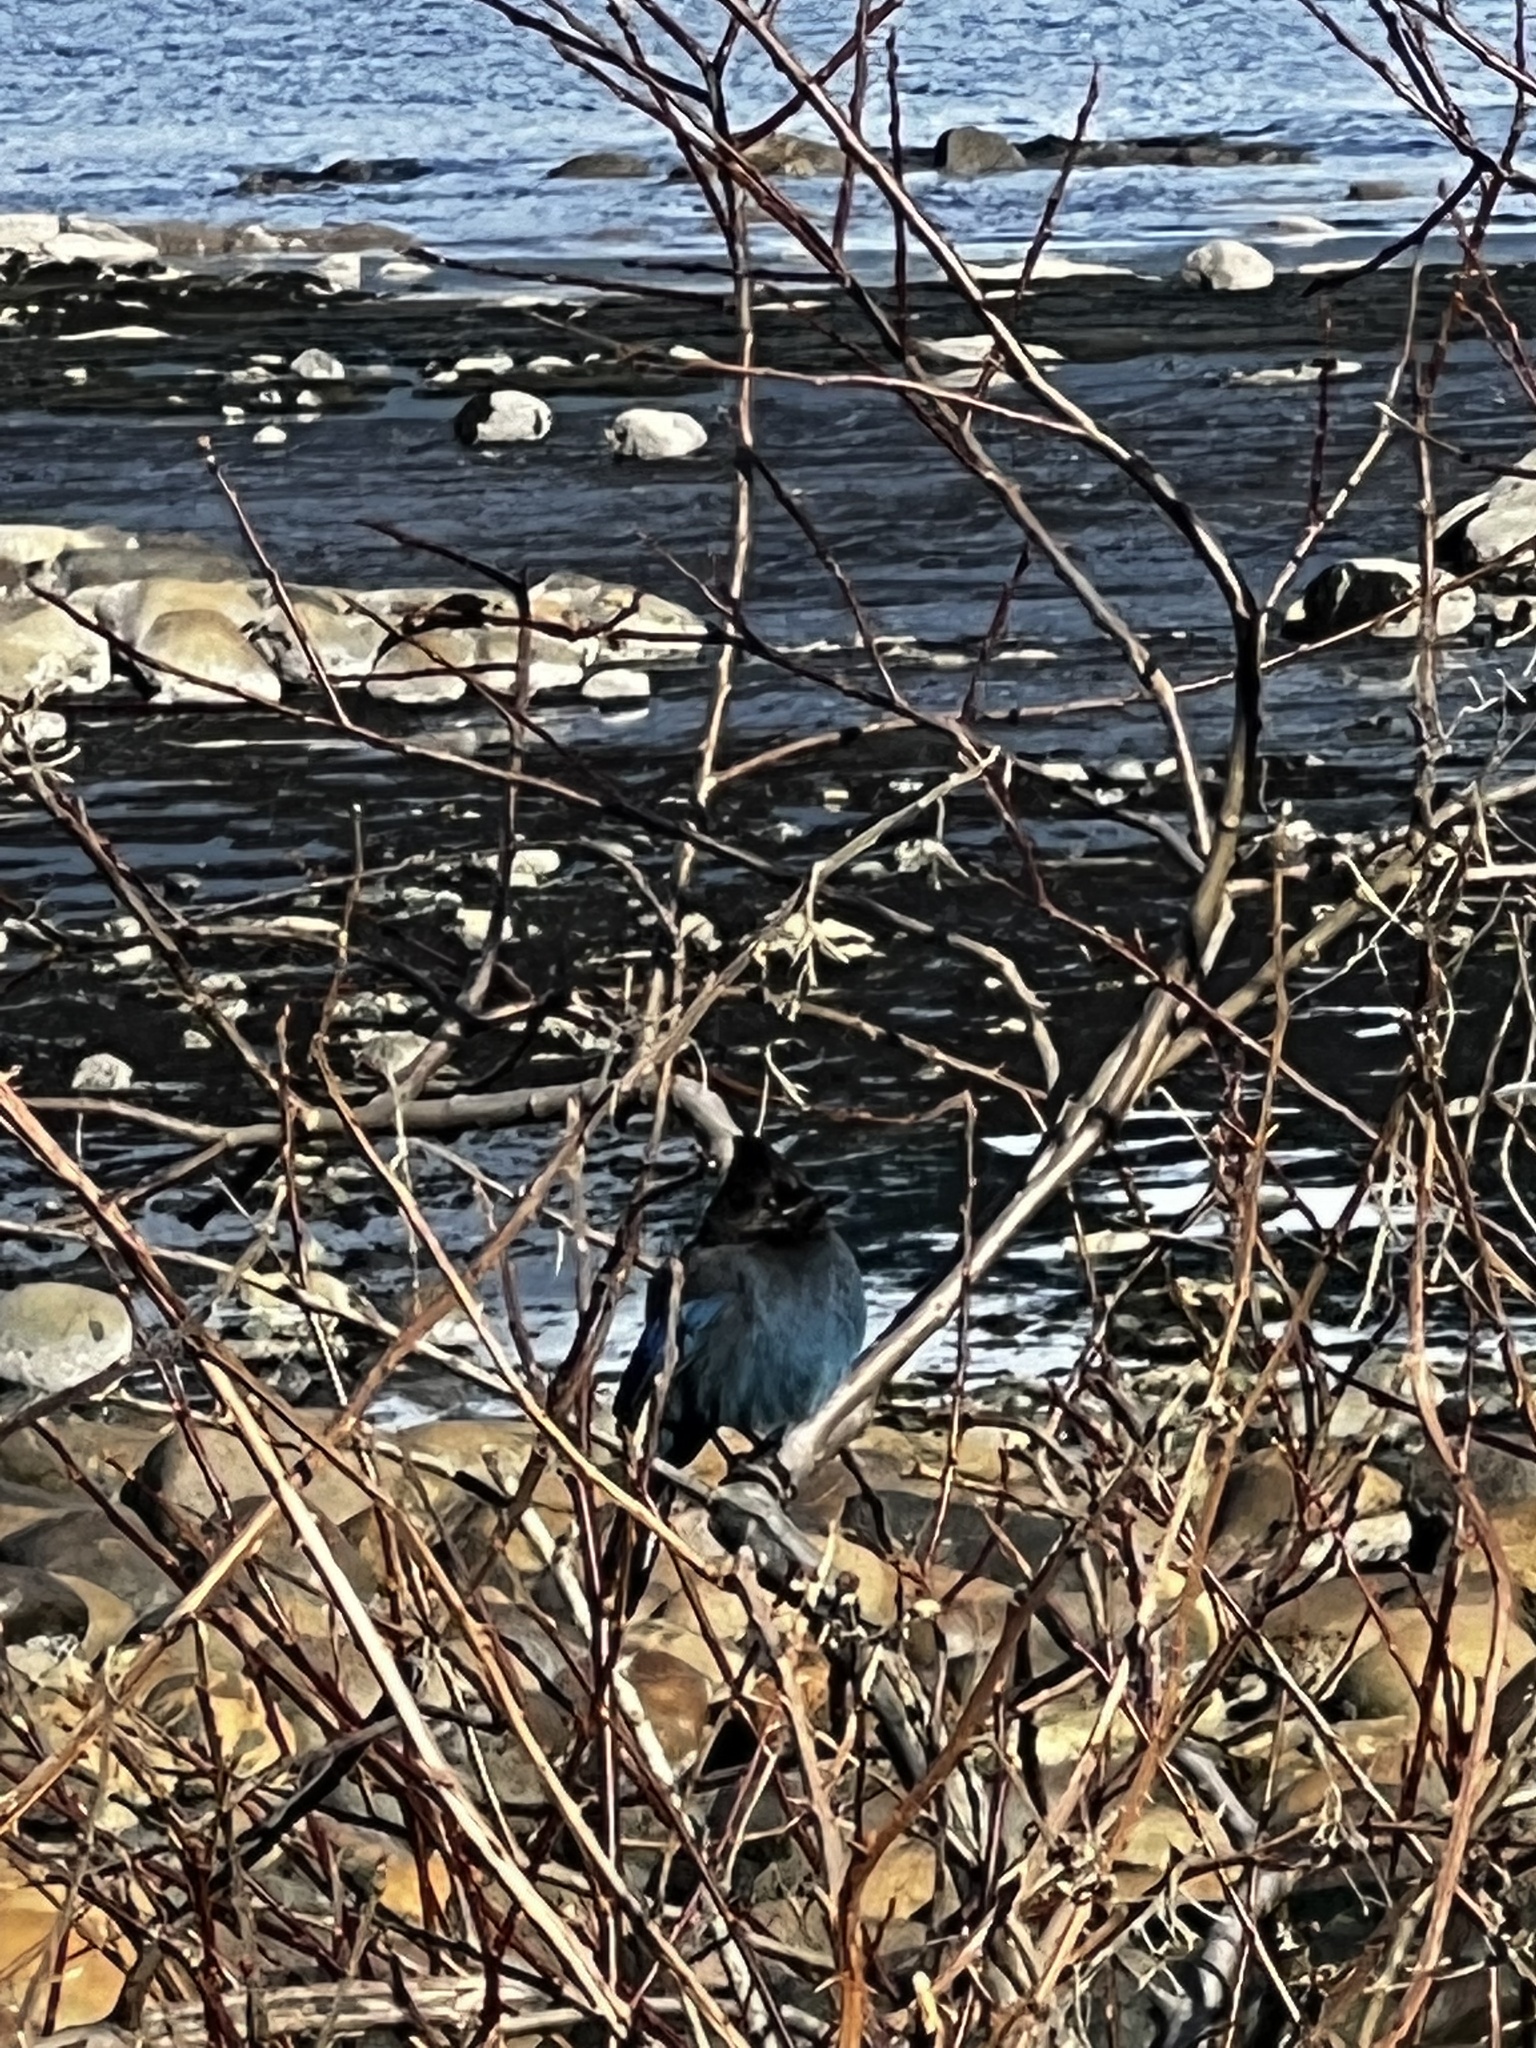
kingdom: Animalia
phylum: Chordata
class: Aves
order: Passeriformes
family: Corvidae
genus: Cyanocitta
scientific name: Cyanocitta stelleri
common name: Steller's jay
